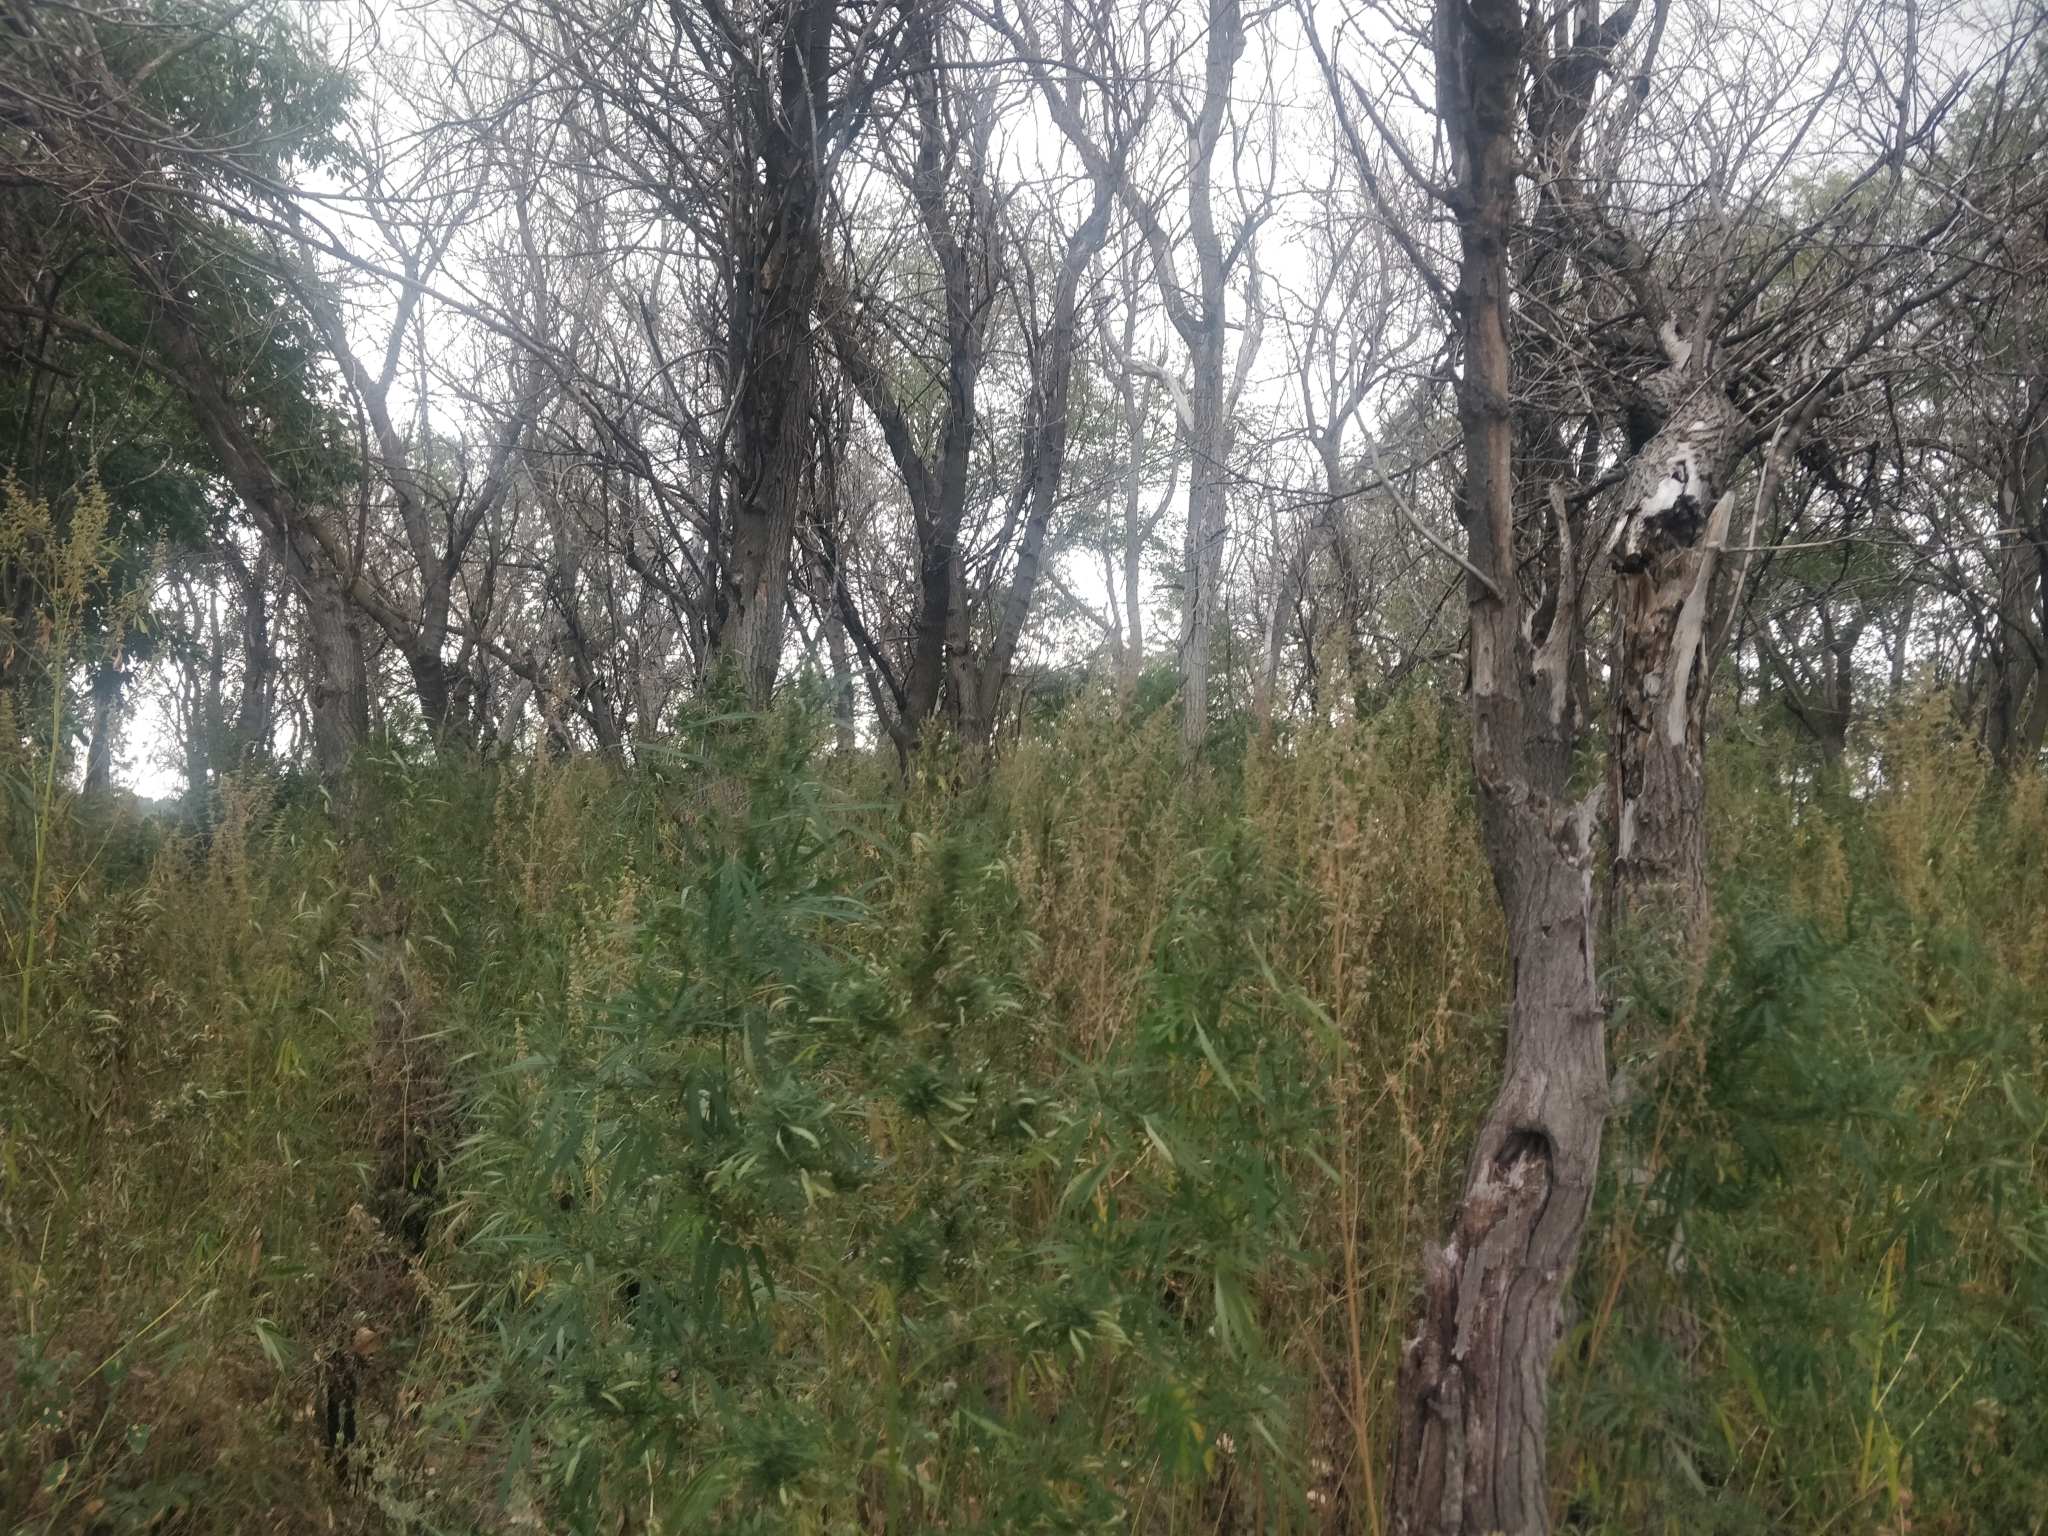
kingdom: Plantae
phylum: Tracheophyta
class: Magnoliopsida
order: Rosales
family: Cannabaceae
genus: Cannabis
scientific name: Cannabis sativa
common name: Hemp
